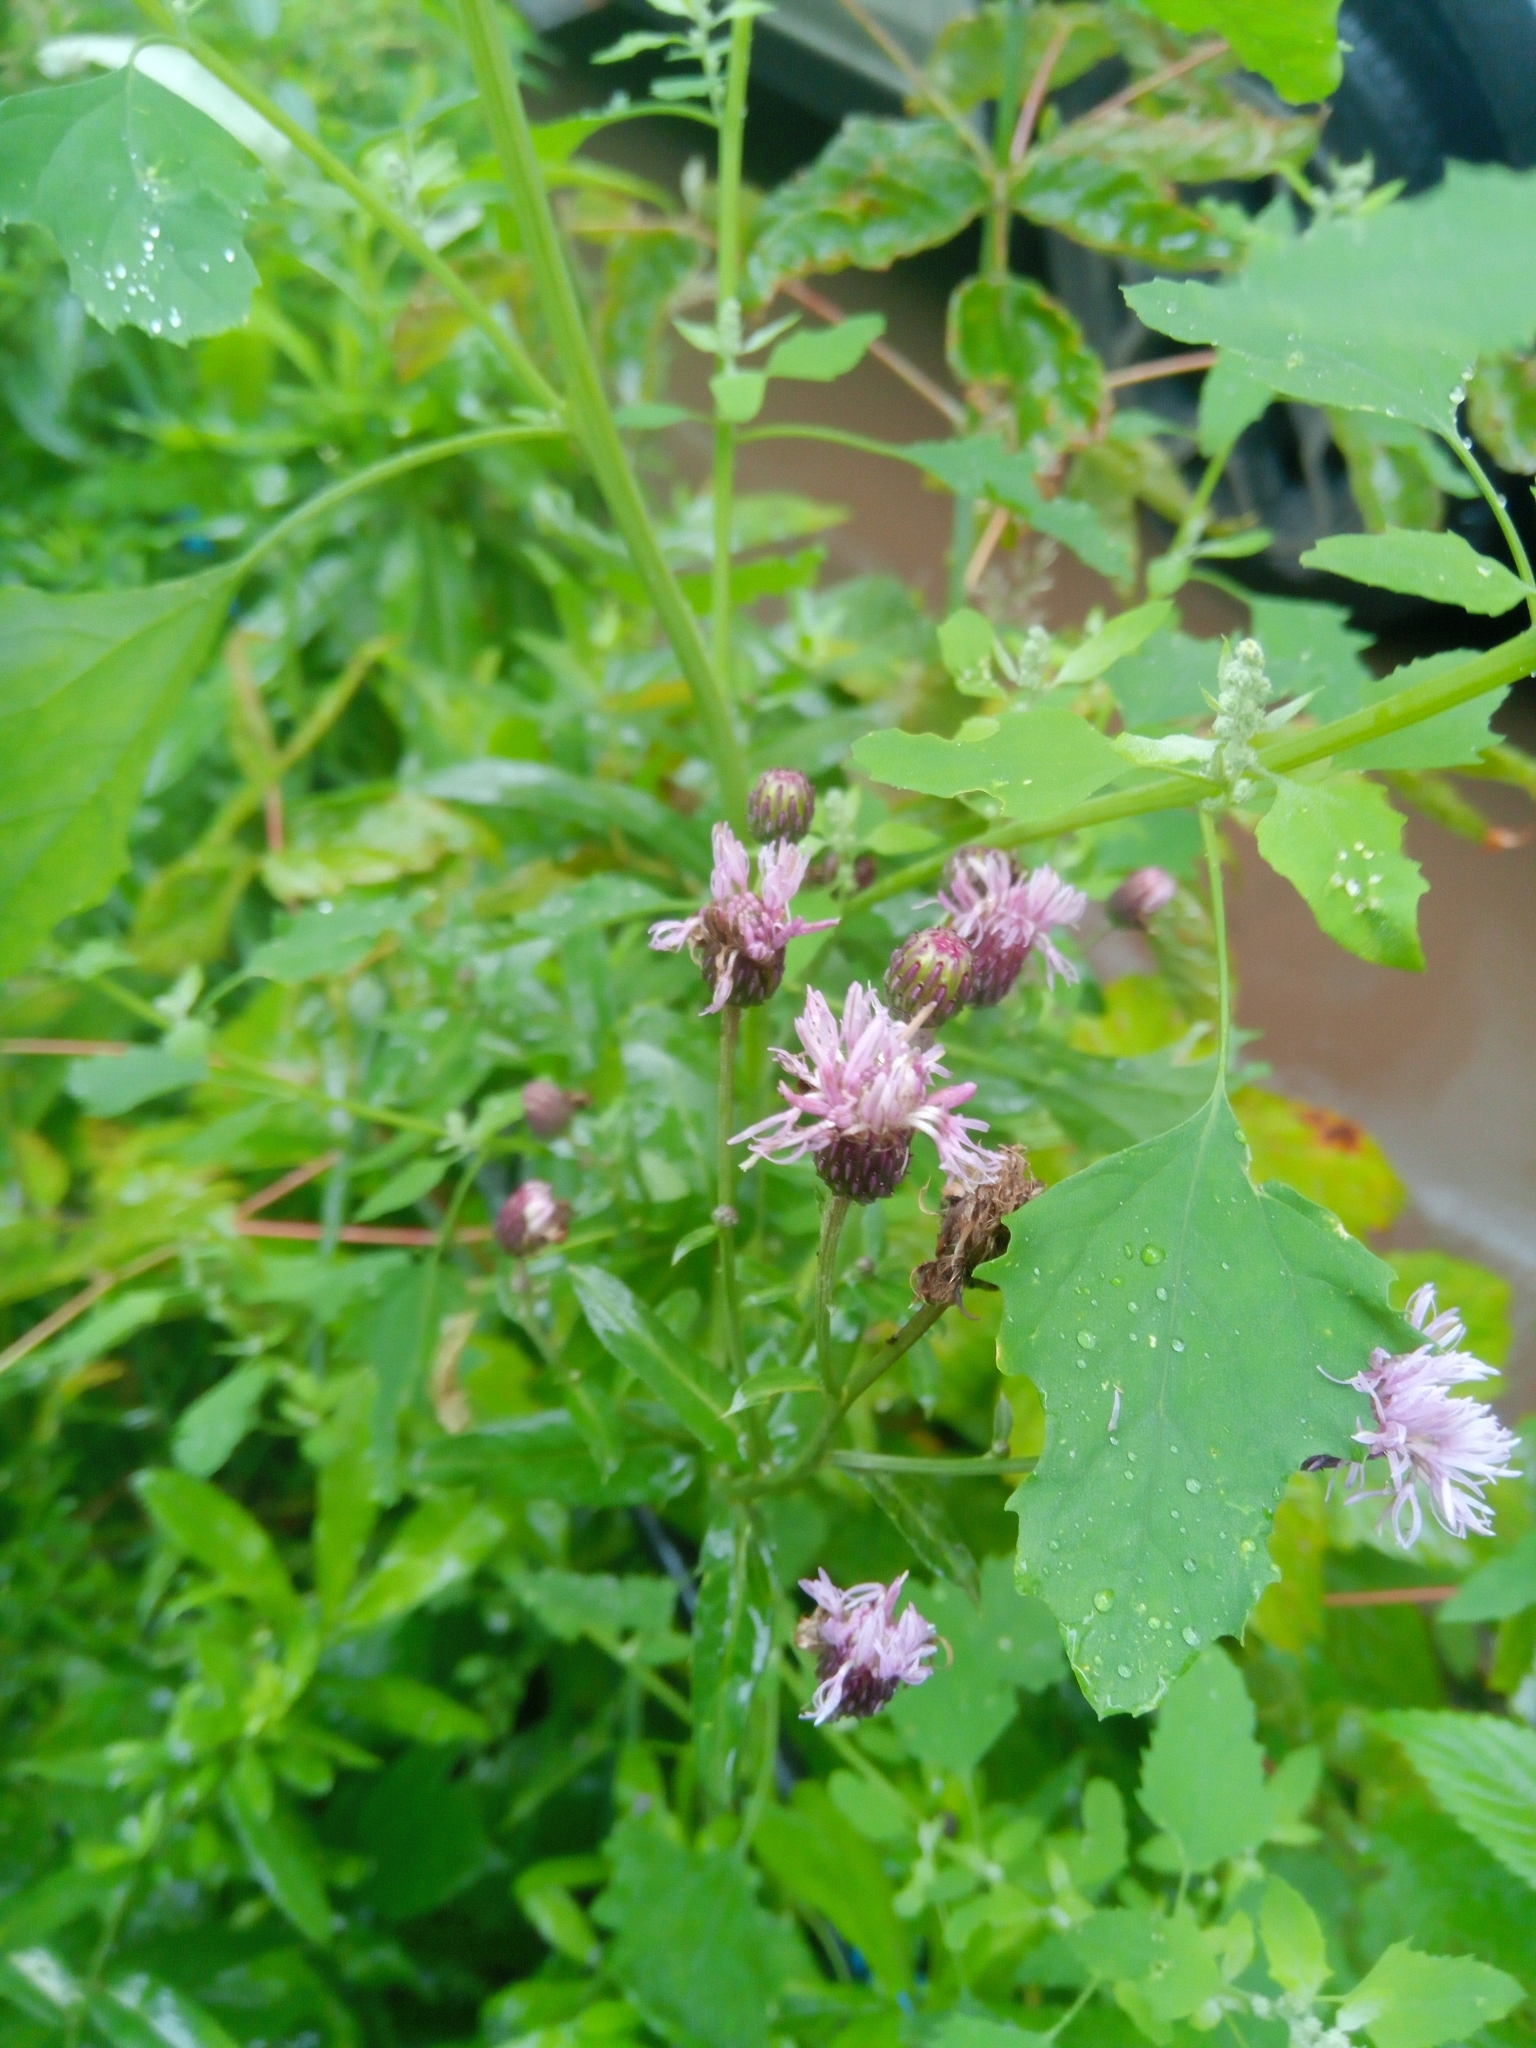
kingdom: Plantae
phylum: Tracheophyta
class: Magnoliopsida
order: Asterales
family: Asteraceae
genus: Cirsium
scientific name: Cirsium arvense
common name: Creeping thistle
